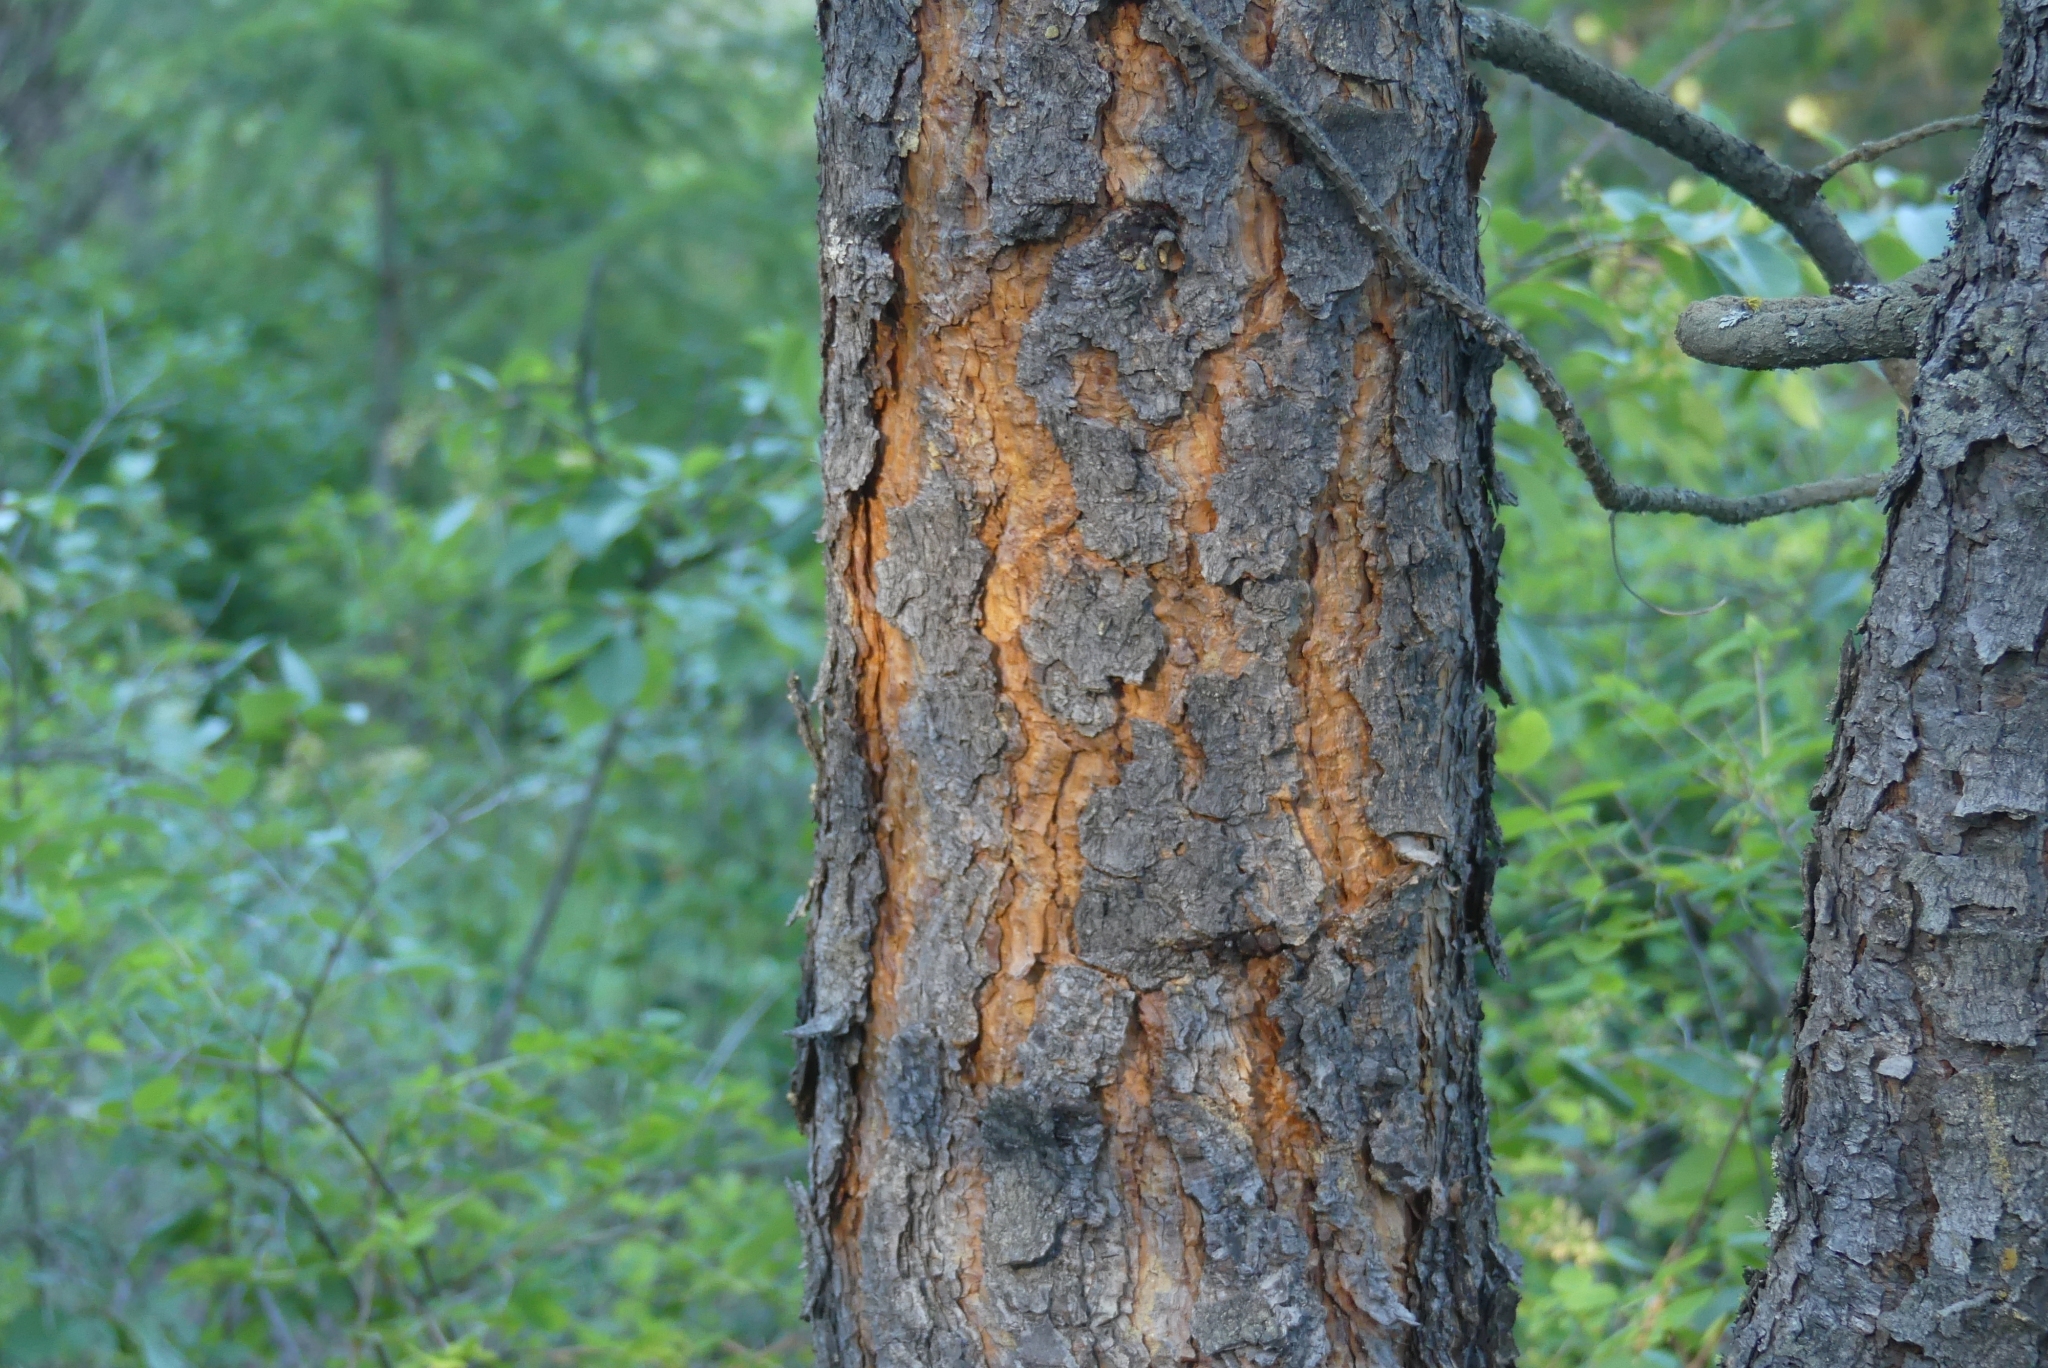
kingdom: Plantae
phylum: Tracheophyta
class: Pinopsida
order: Pinales
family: Pinaceae
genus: Pinus
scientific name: Pinus ponderosa
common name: Western yellow-pine
